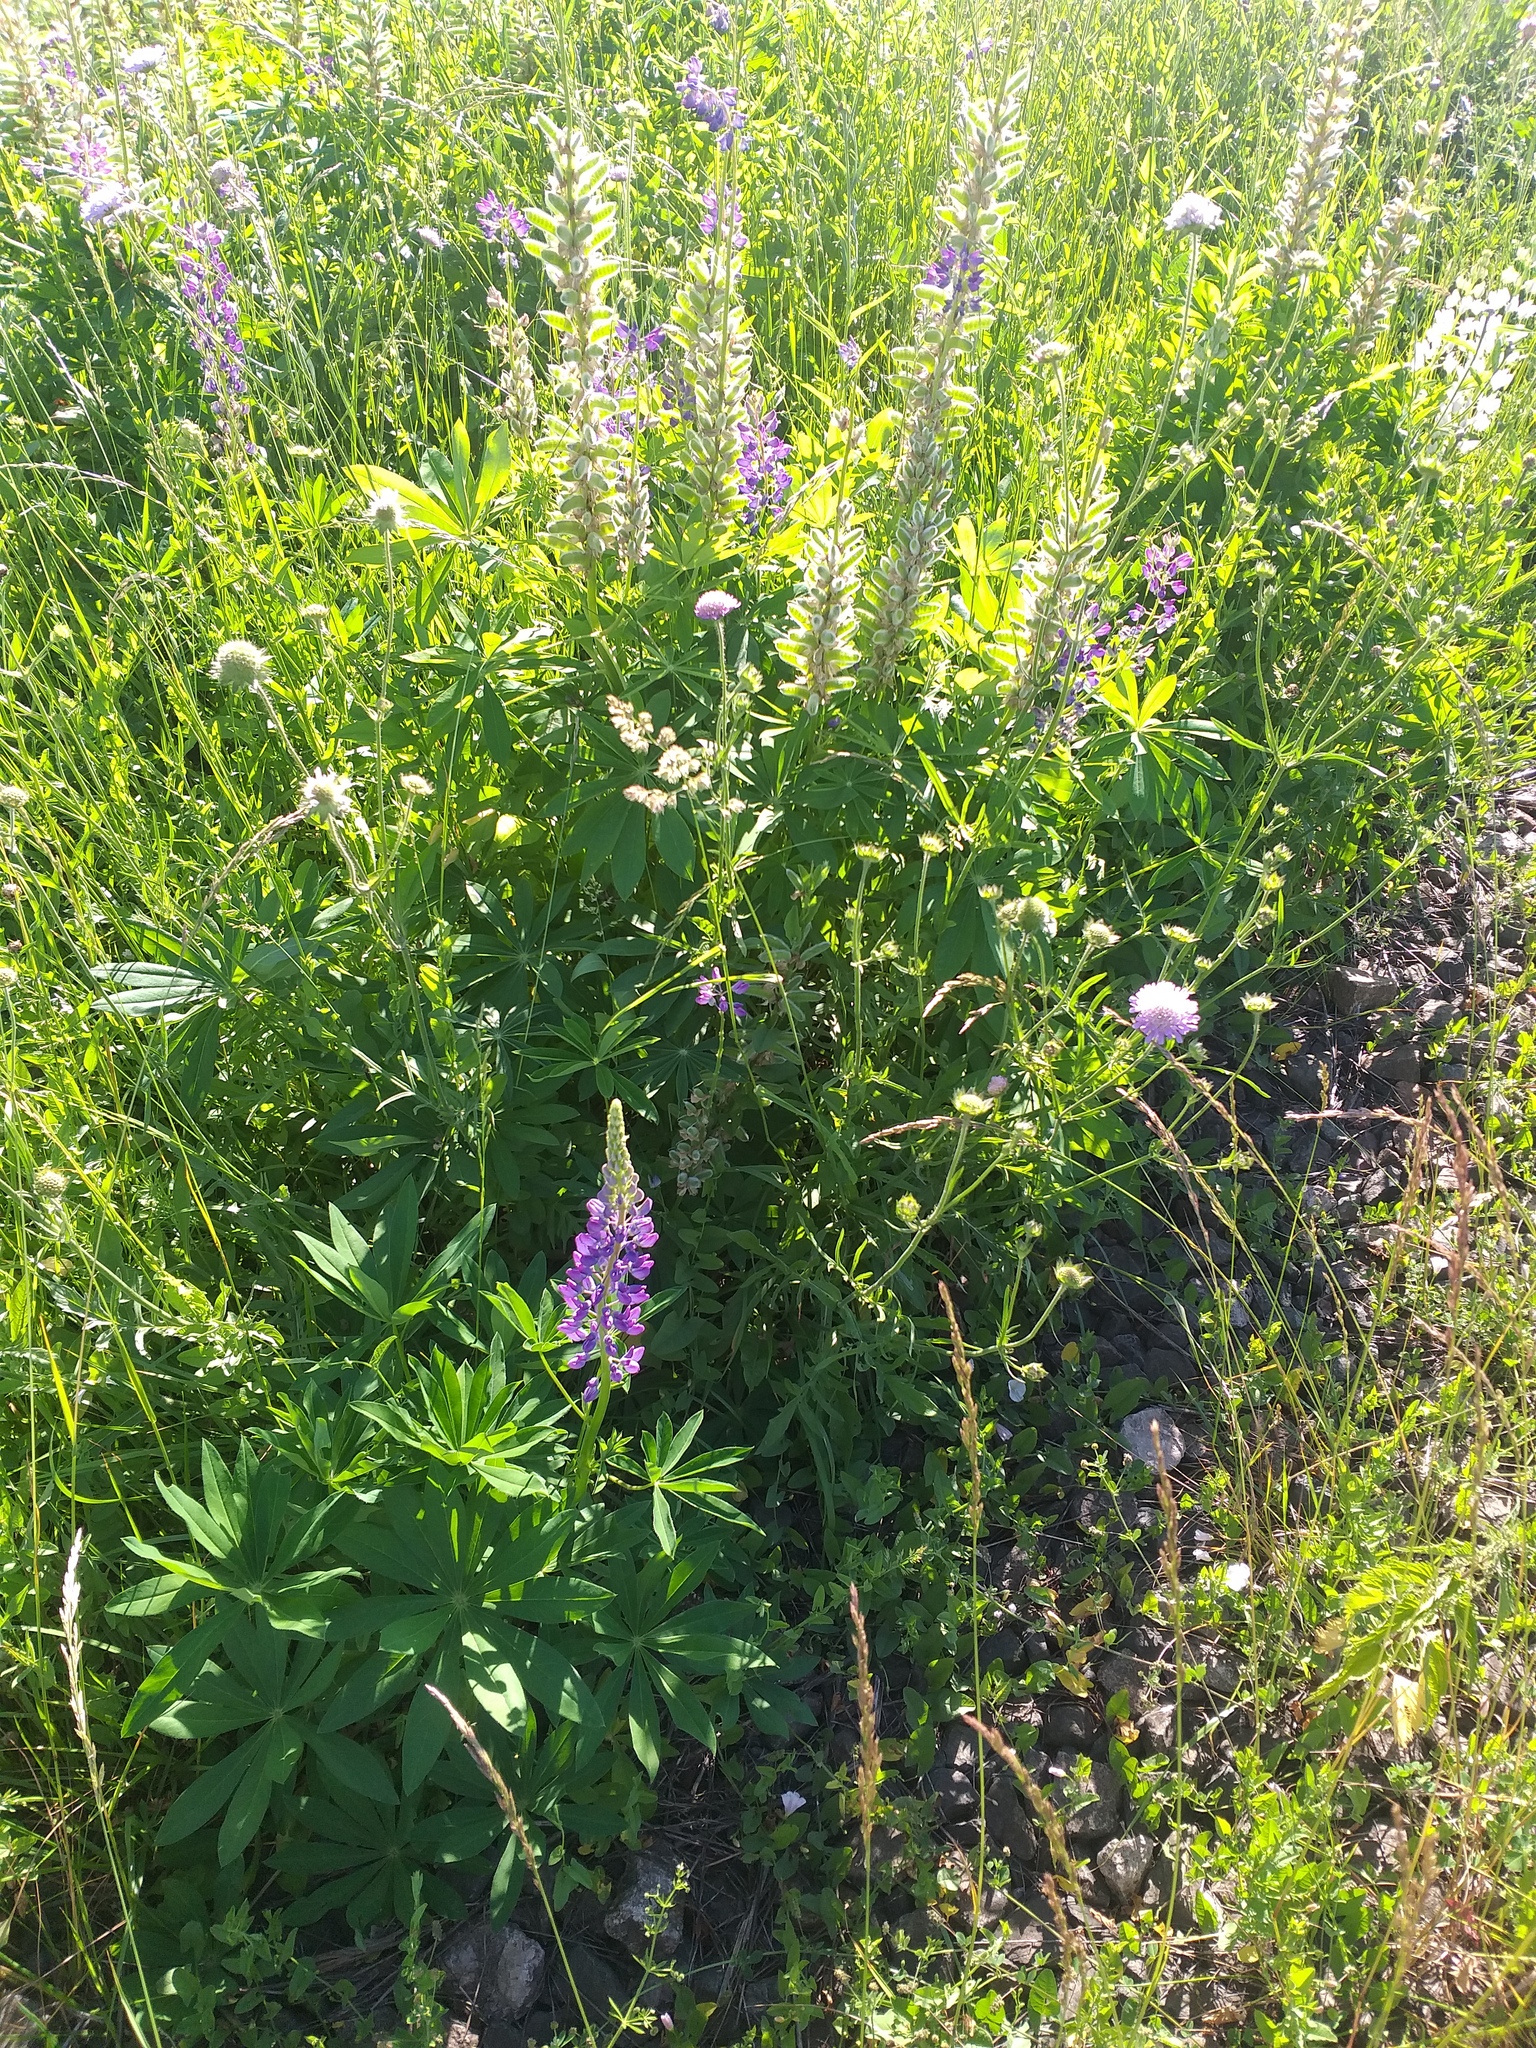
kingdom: Plantae
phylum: Tracheophyta
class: Magnoliopsida
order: Fabales
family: Fabaceae
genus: Lupinus
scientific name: Lupinus polyphyllus
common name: Garden lupin
